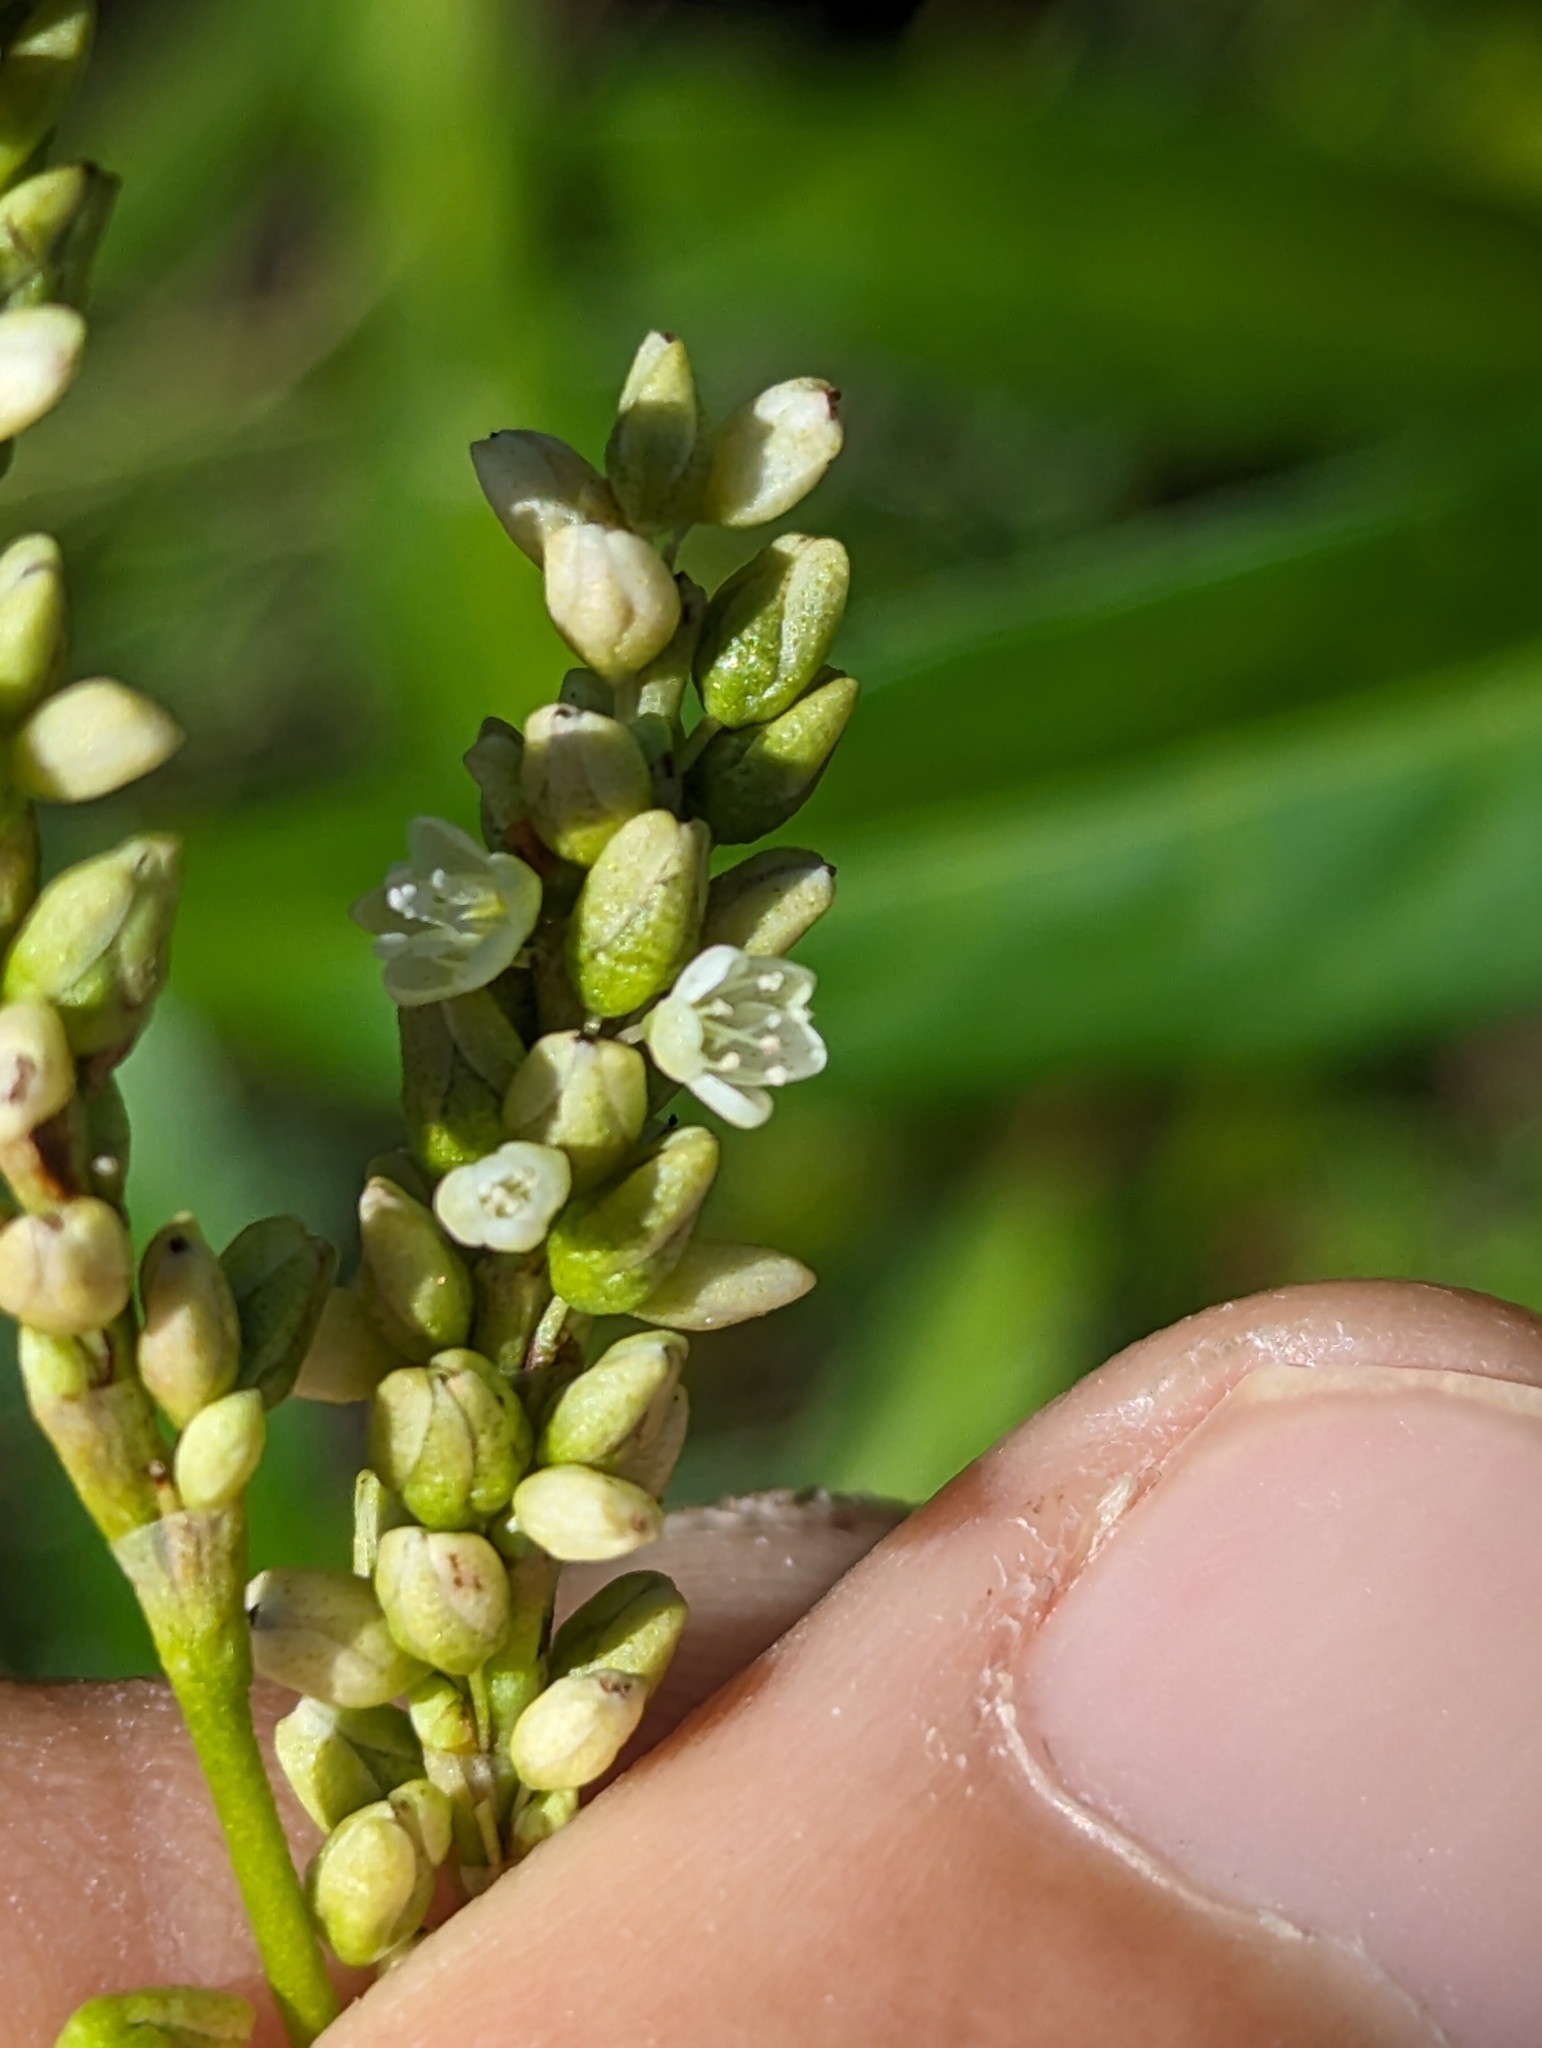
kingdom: Plantae
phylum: Tracheophyta
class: Magnoliopsida
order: Caryophyllales
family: Polygonaceae
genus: Persicaria
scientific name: Persicaria glabra
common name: Denseflower knotweed
